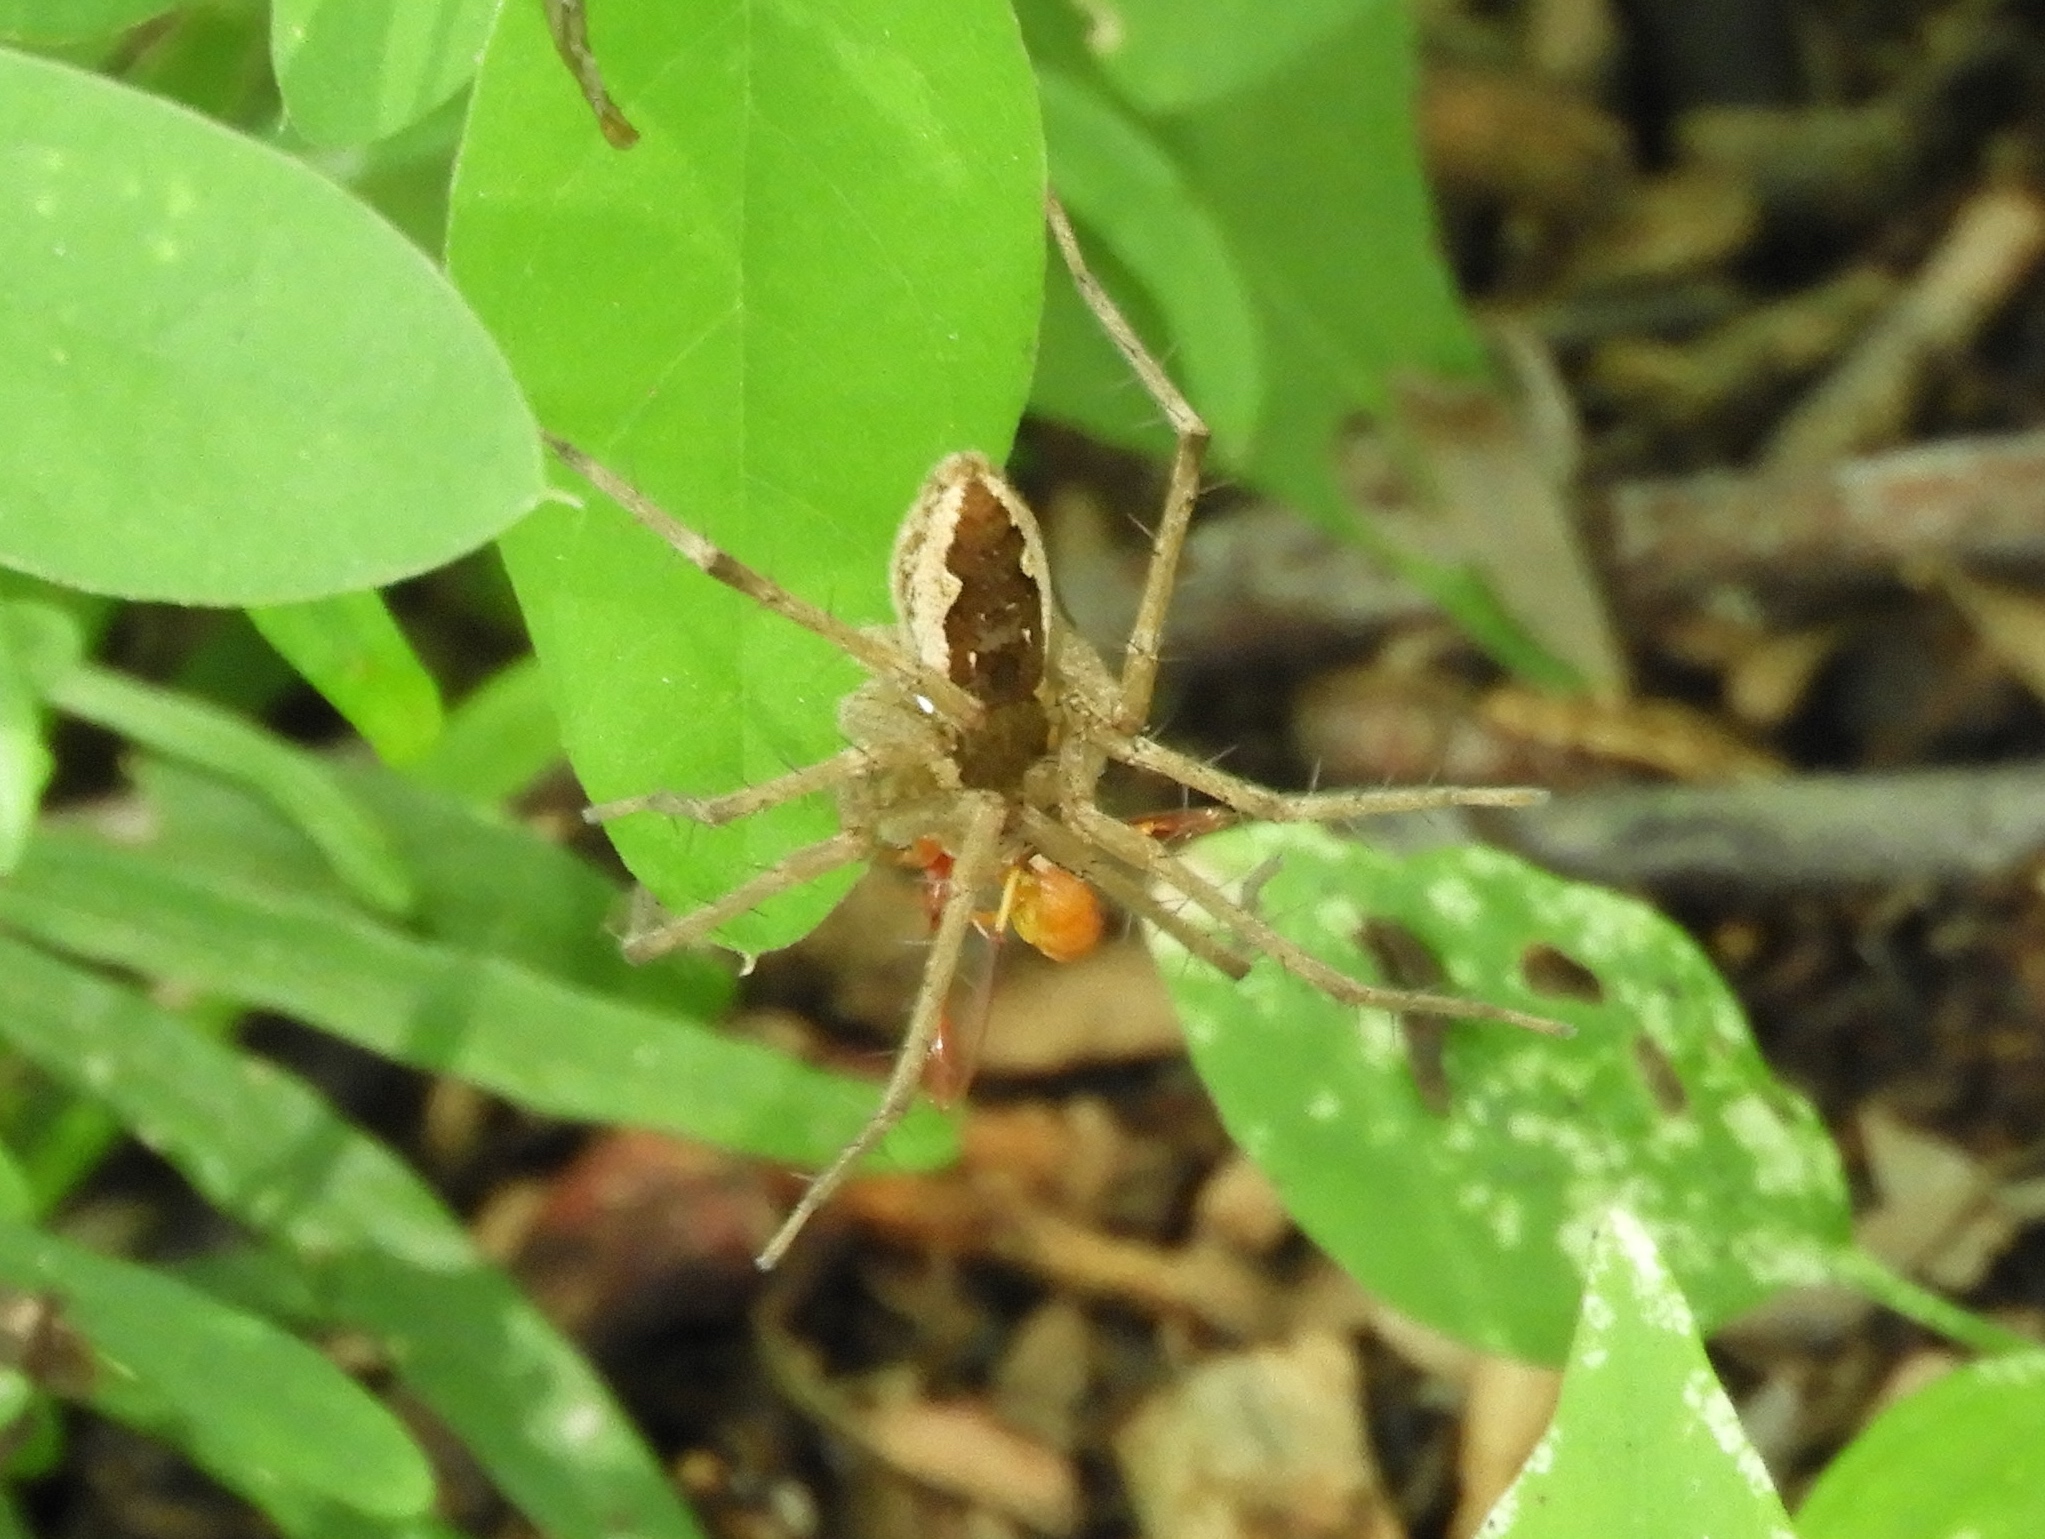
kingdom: Animalia
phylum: Arthropoda
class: Arachnida
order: Araneae
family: Pisauridae
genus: Tinus
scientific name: Tinus
